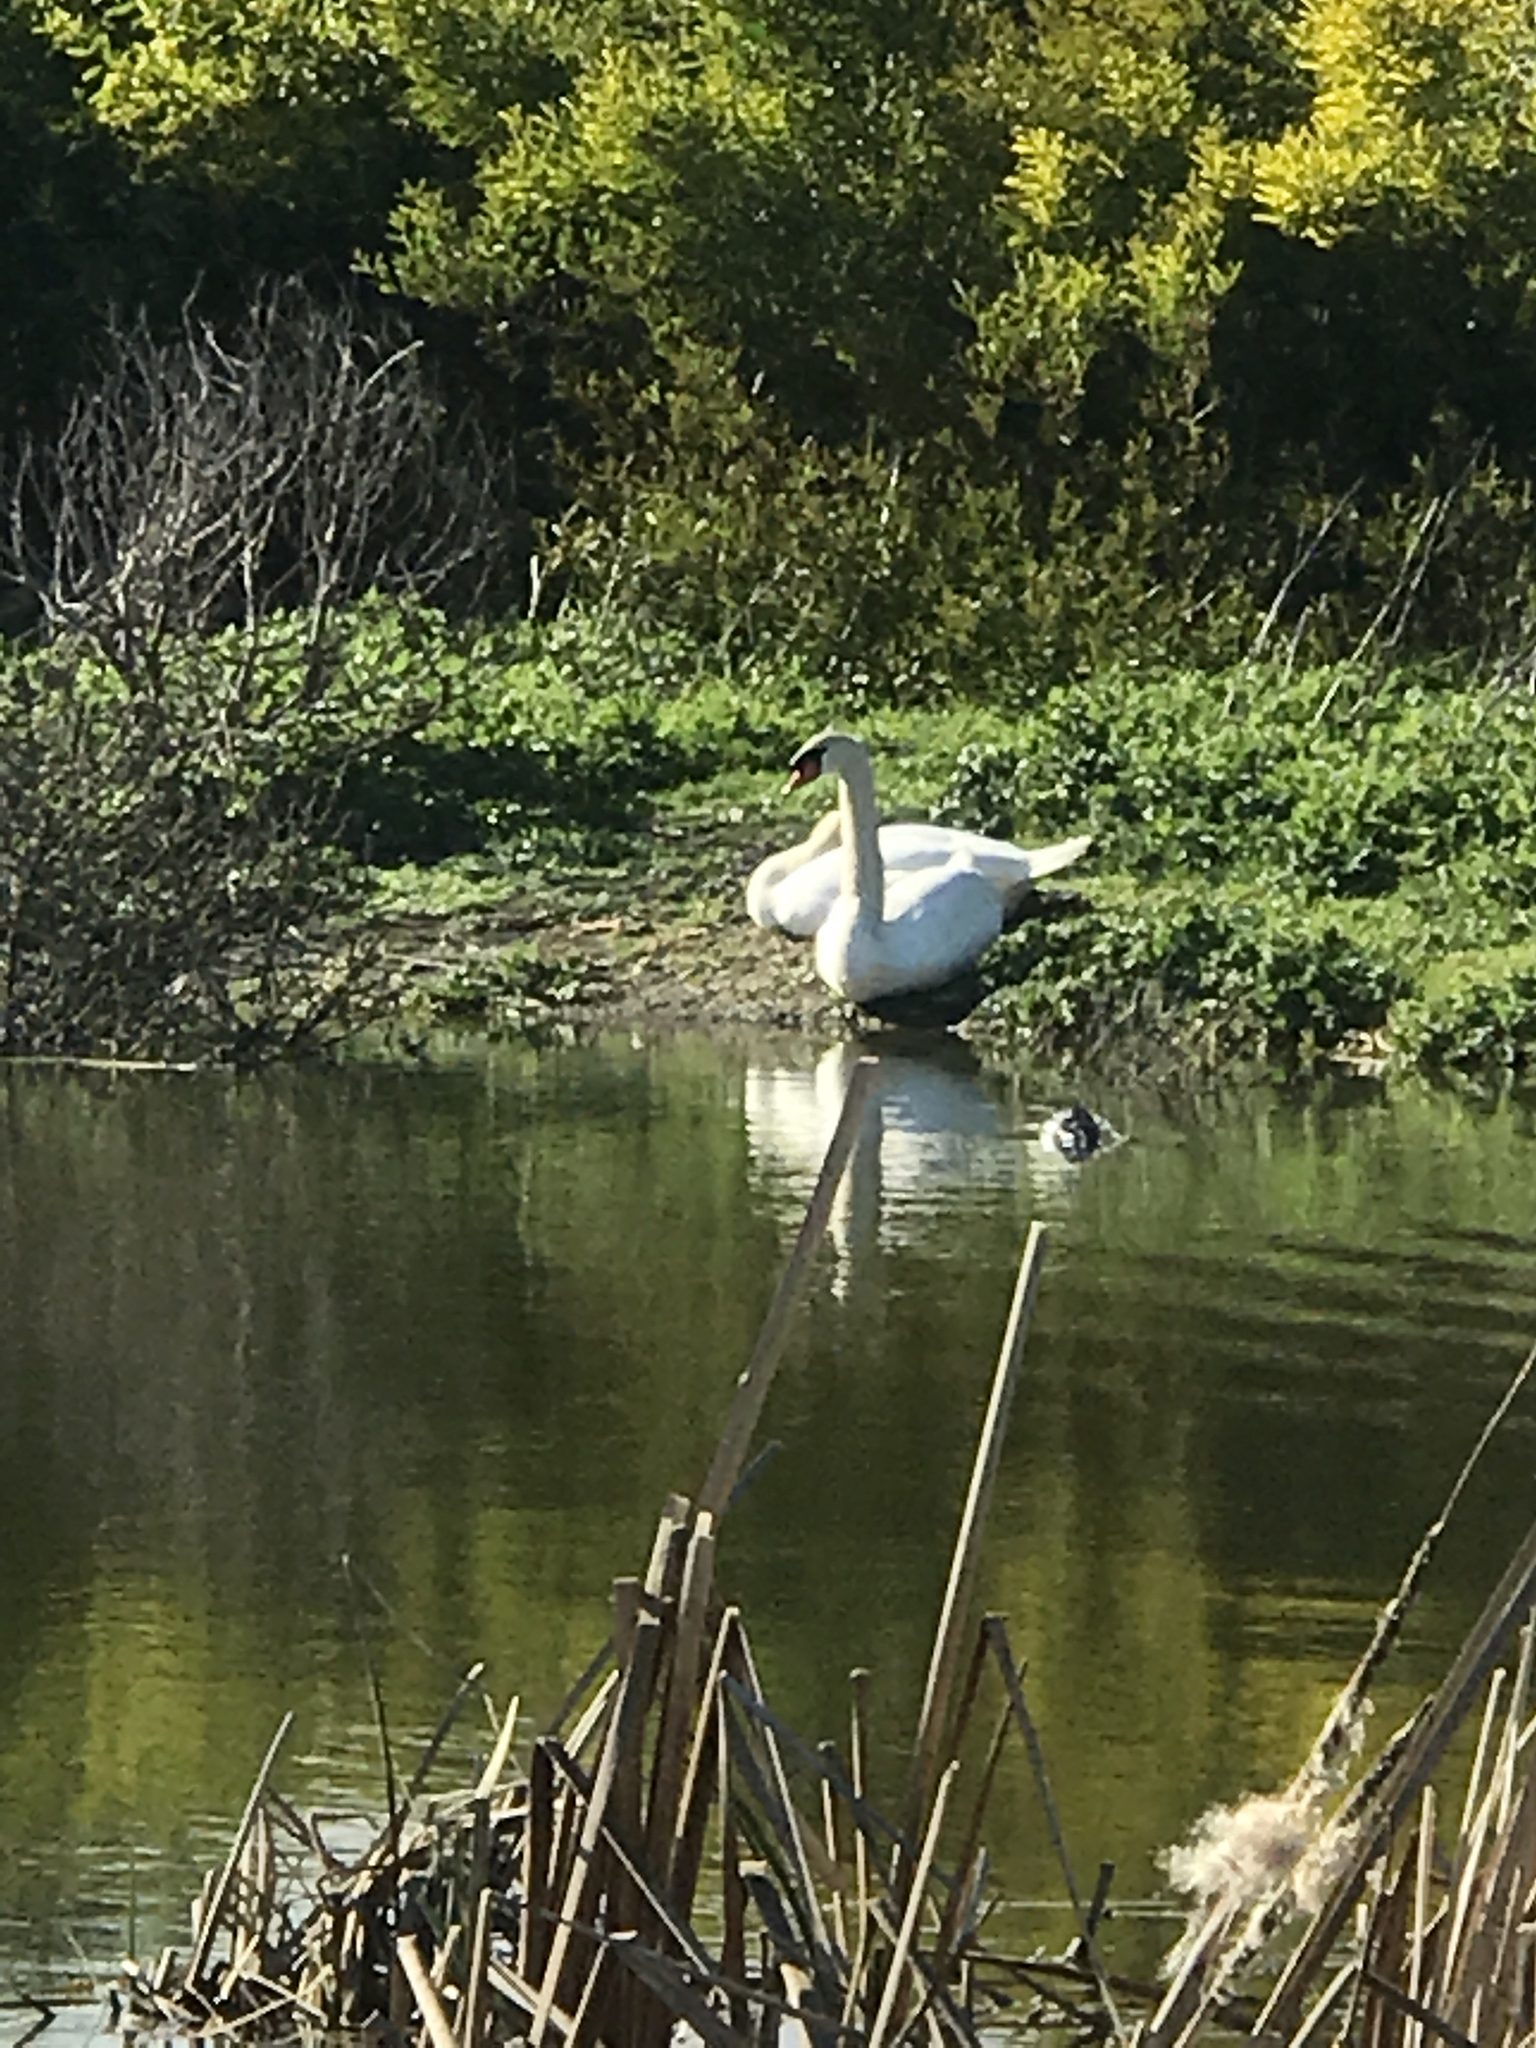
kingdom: Animalia
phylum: Chordata
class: Aves
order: Anseriformes
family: Anatidae
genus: Cygnus
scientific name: Cygnus olor
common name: Mute swan
